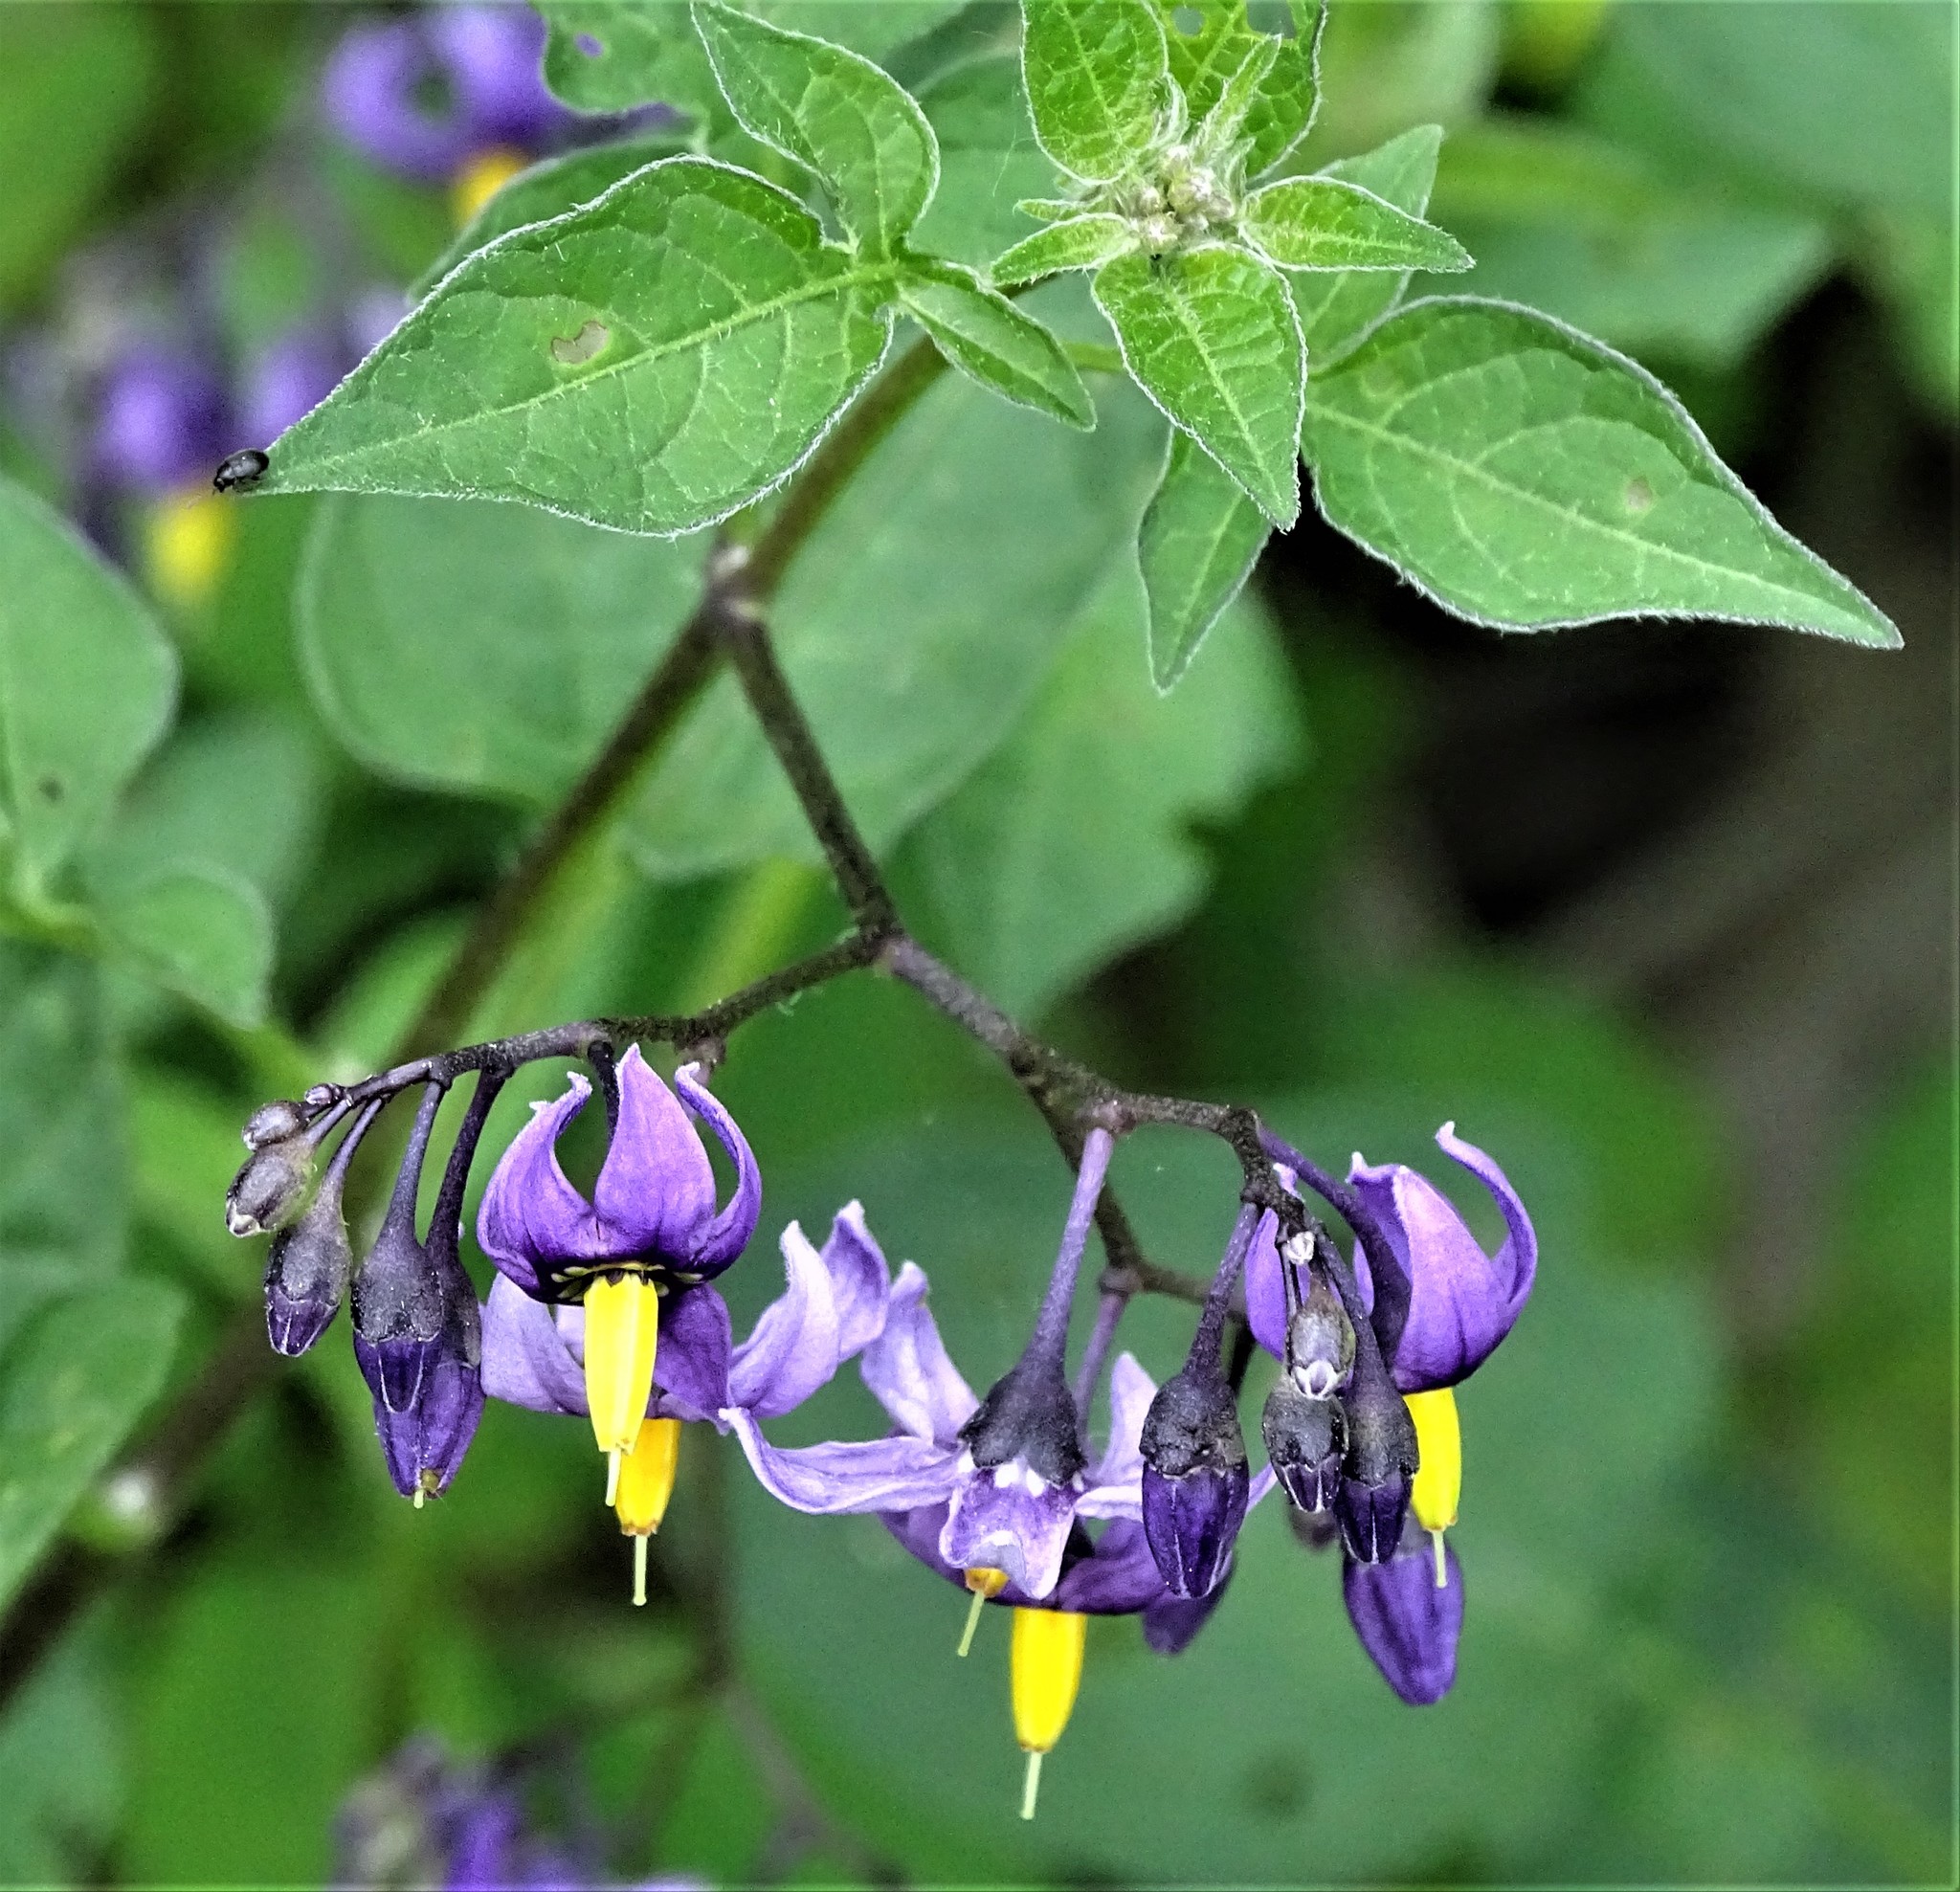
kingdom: Plantae
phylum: Tracheophyta
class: Magnoliopsida
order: Solanales
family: Solanaceae
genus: Solanum
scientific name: Solanum dulcamara
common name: Climbing nightshade
